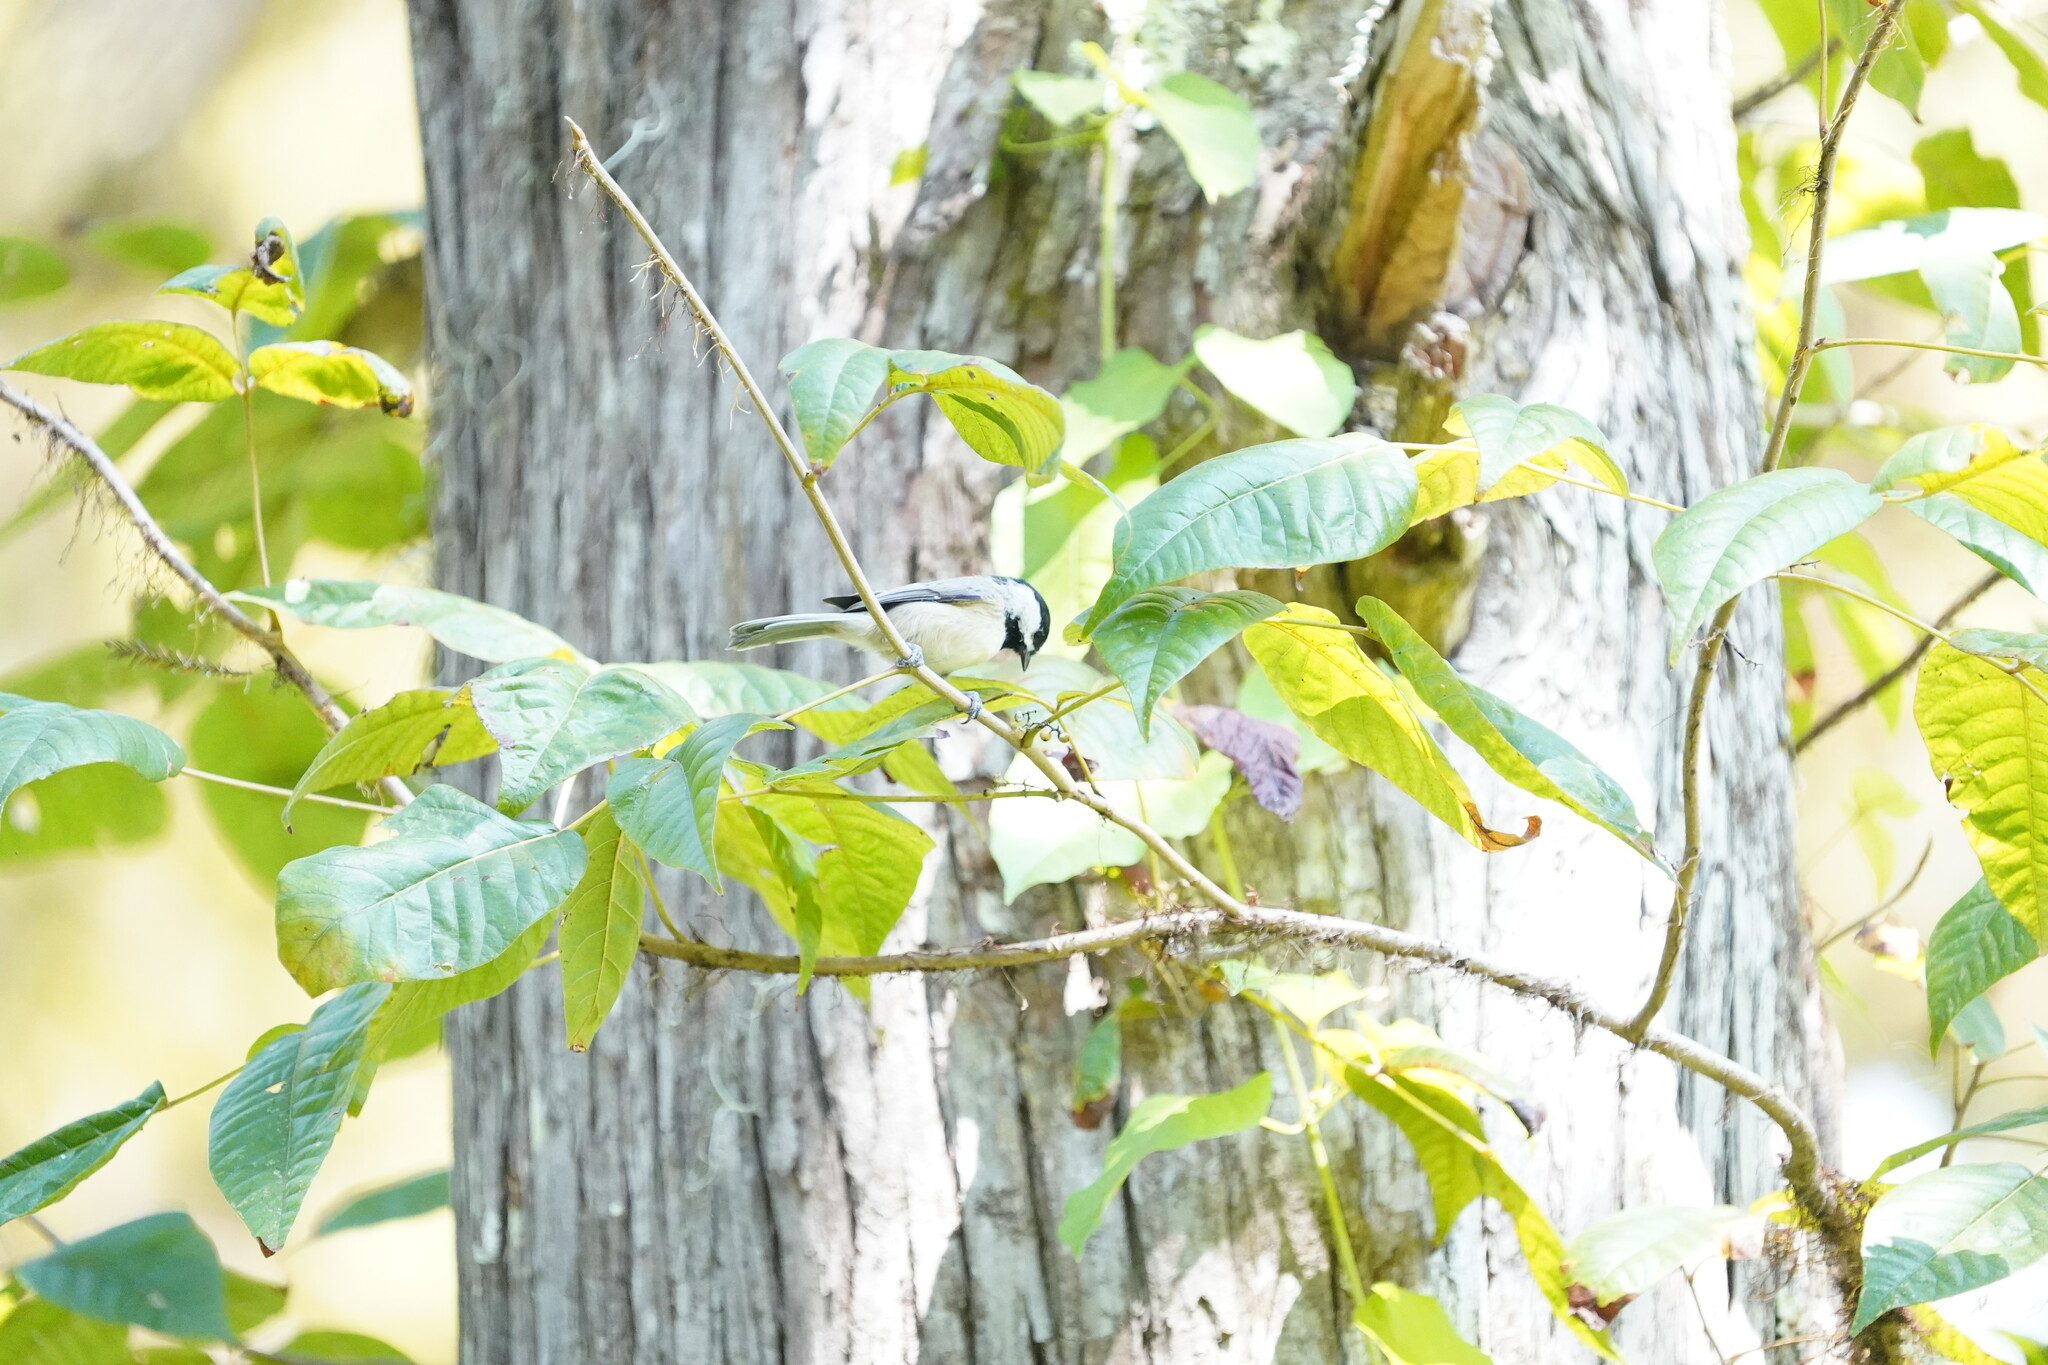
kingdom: Animalia
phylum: Chordata
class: Aves
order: Passeriformes
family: Paridae
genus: Poecile
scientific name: Poecile carolinensis
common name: Carolina chickadee
